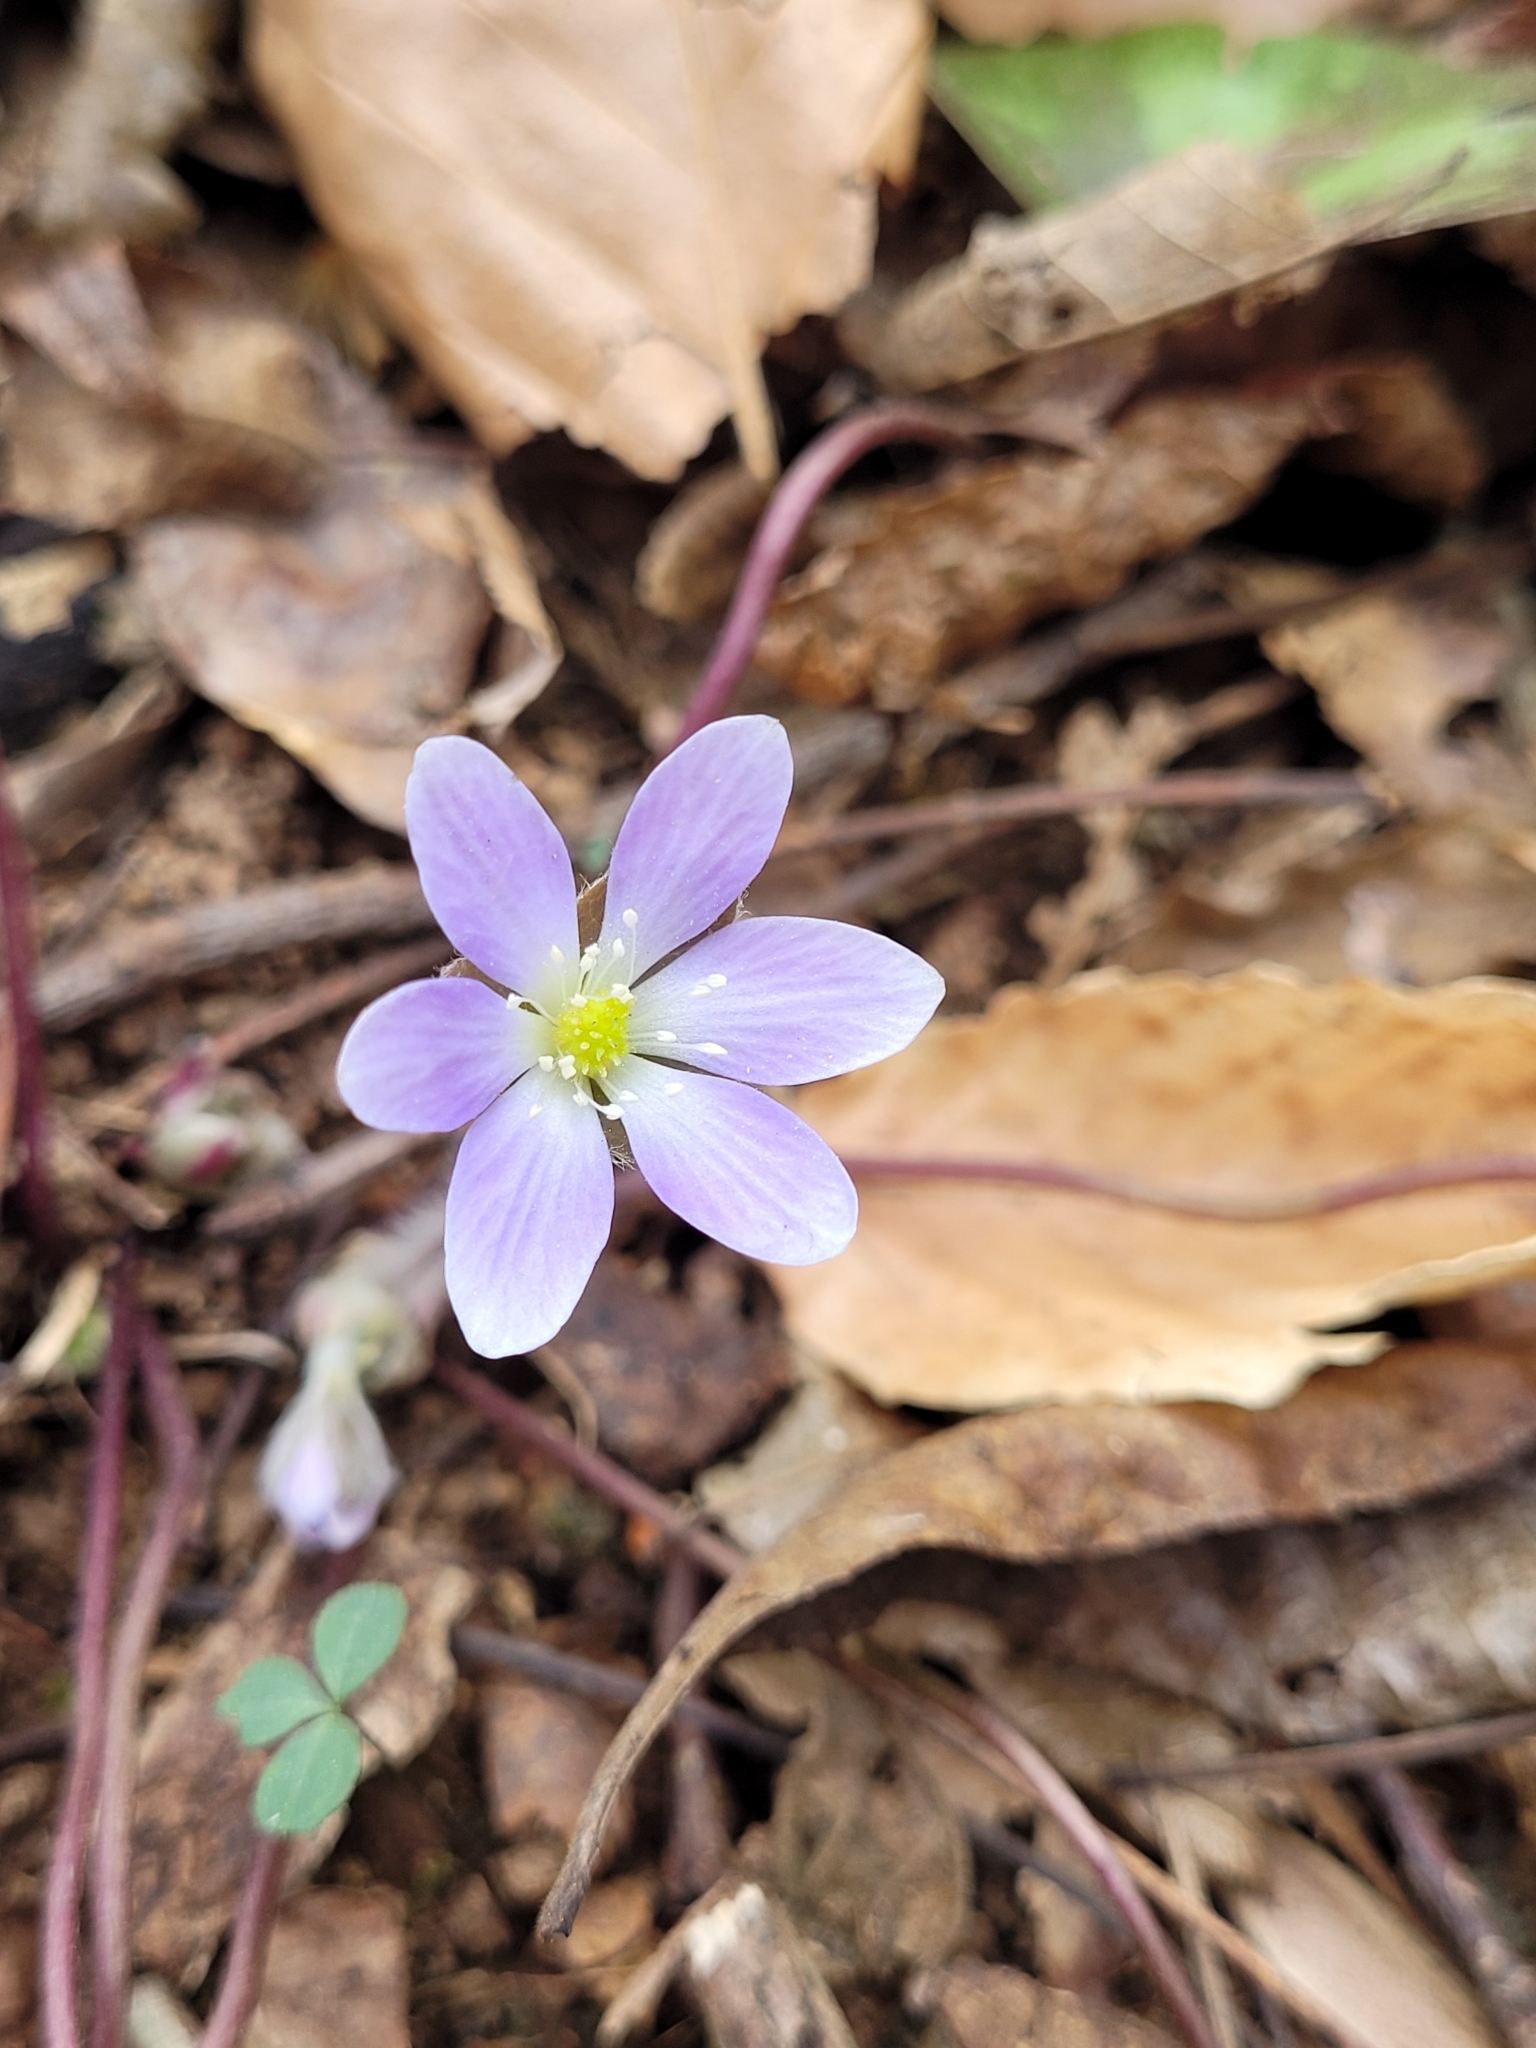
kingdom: Plantae
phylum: Tracheophyta
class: Magnoliopsida
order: Ranunculales
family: Ranunculaceae
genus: Hepatica
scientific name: Hepatica americana
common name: American hepatica
